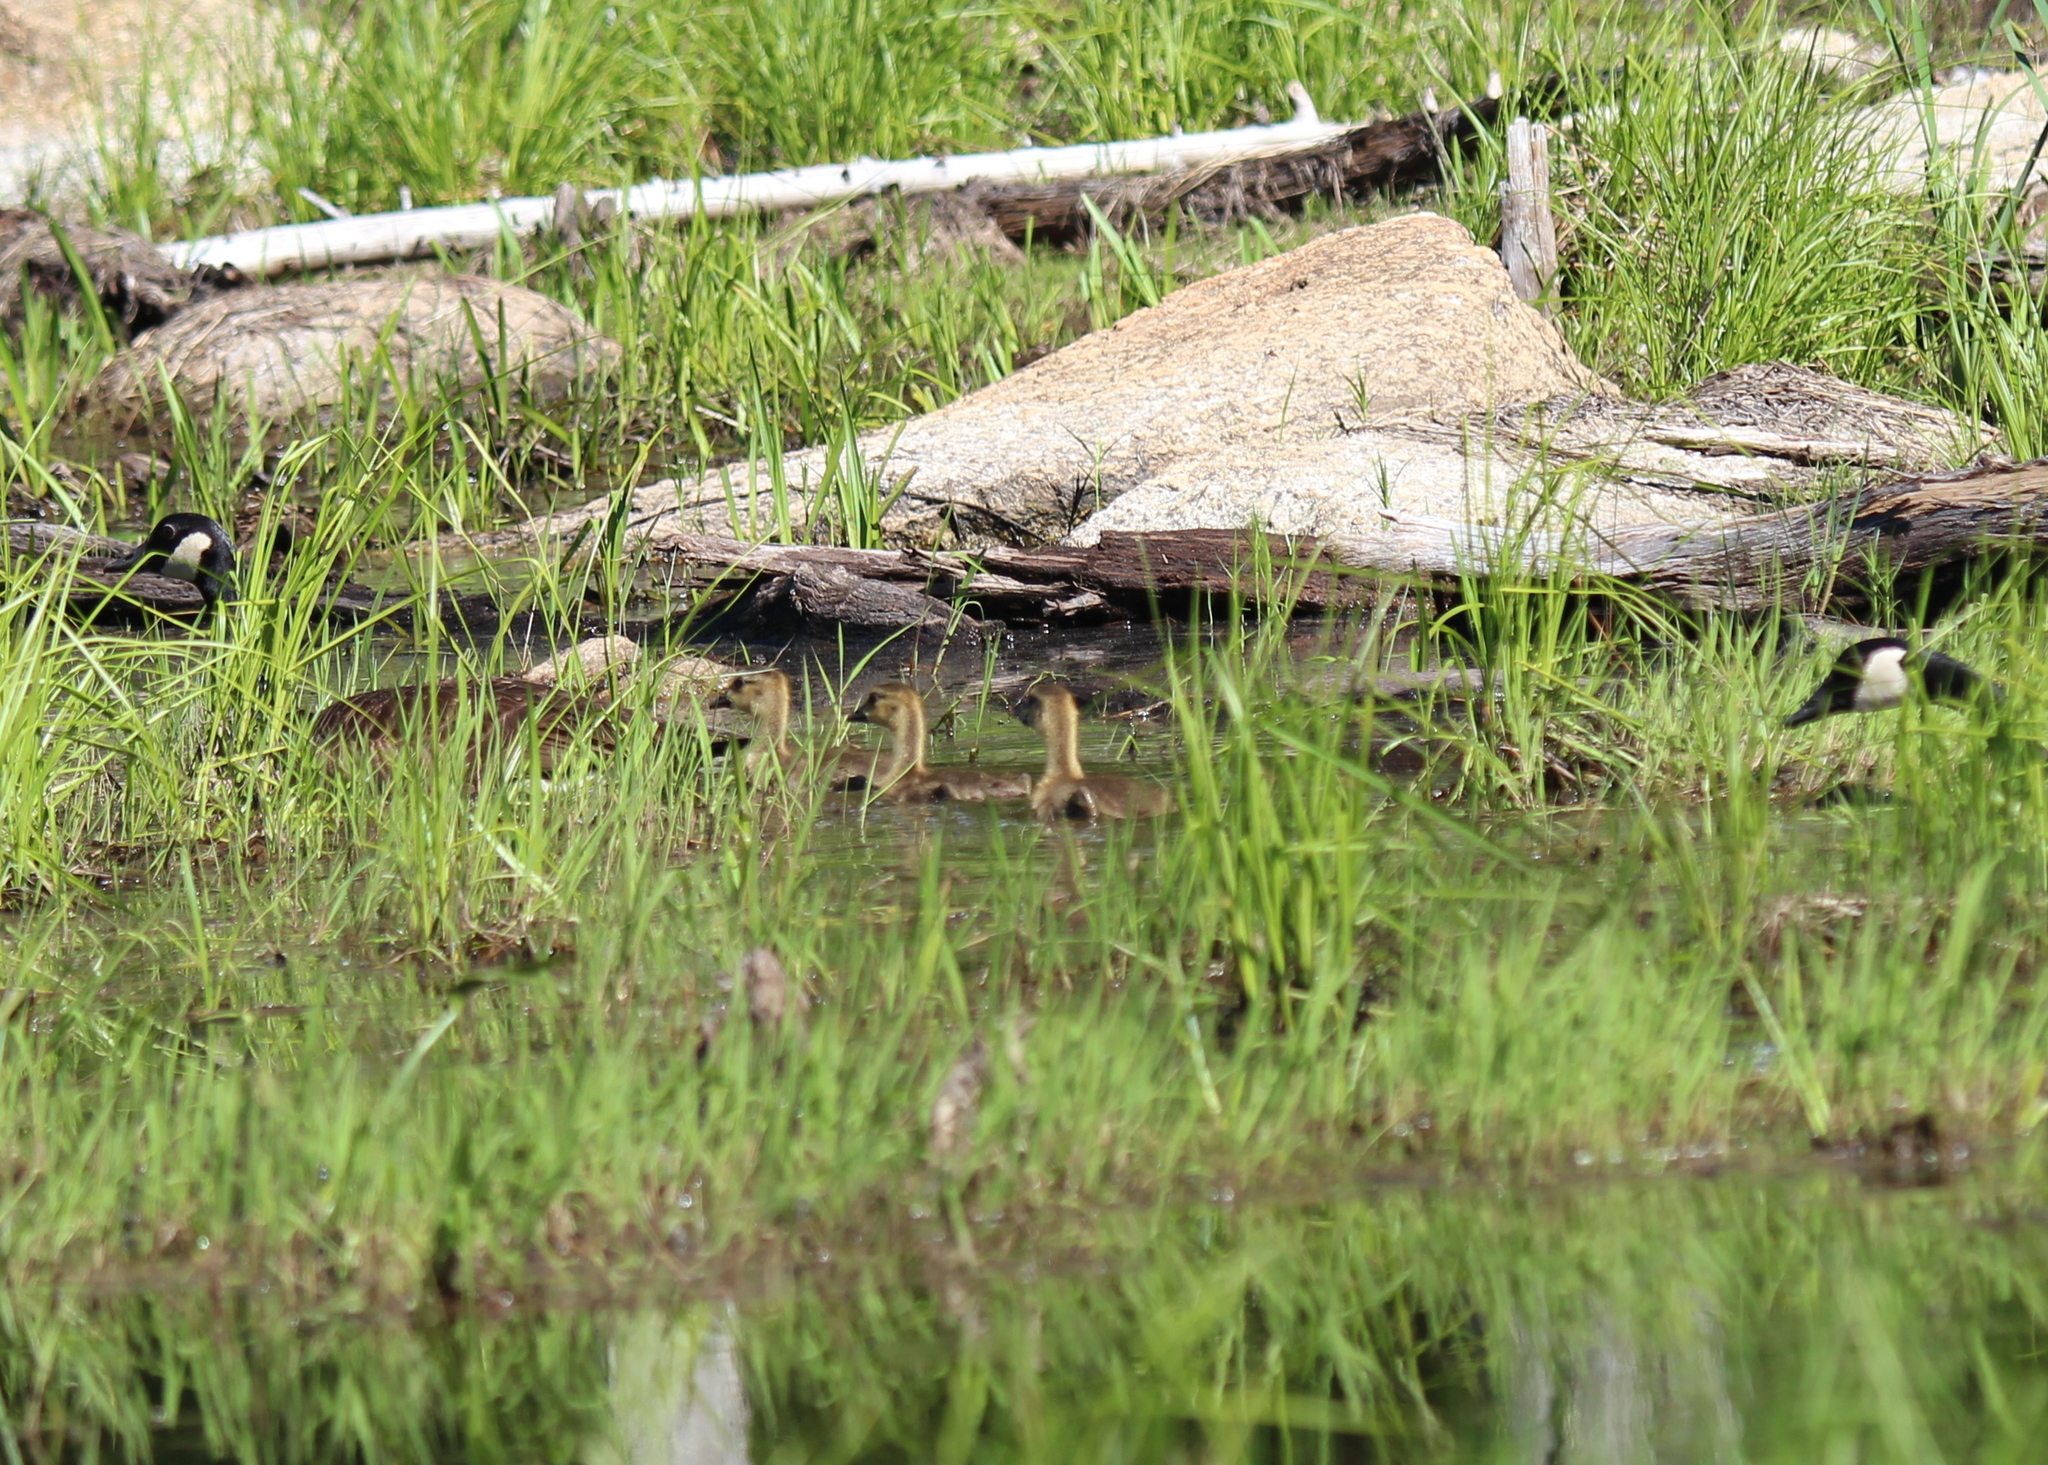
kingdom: Animalia
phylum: Chordata
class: Aves
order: Anseriformes
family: Anatidae
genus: Branta
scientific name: Branta canadensis
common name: Canada goose
